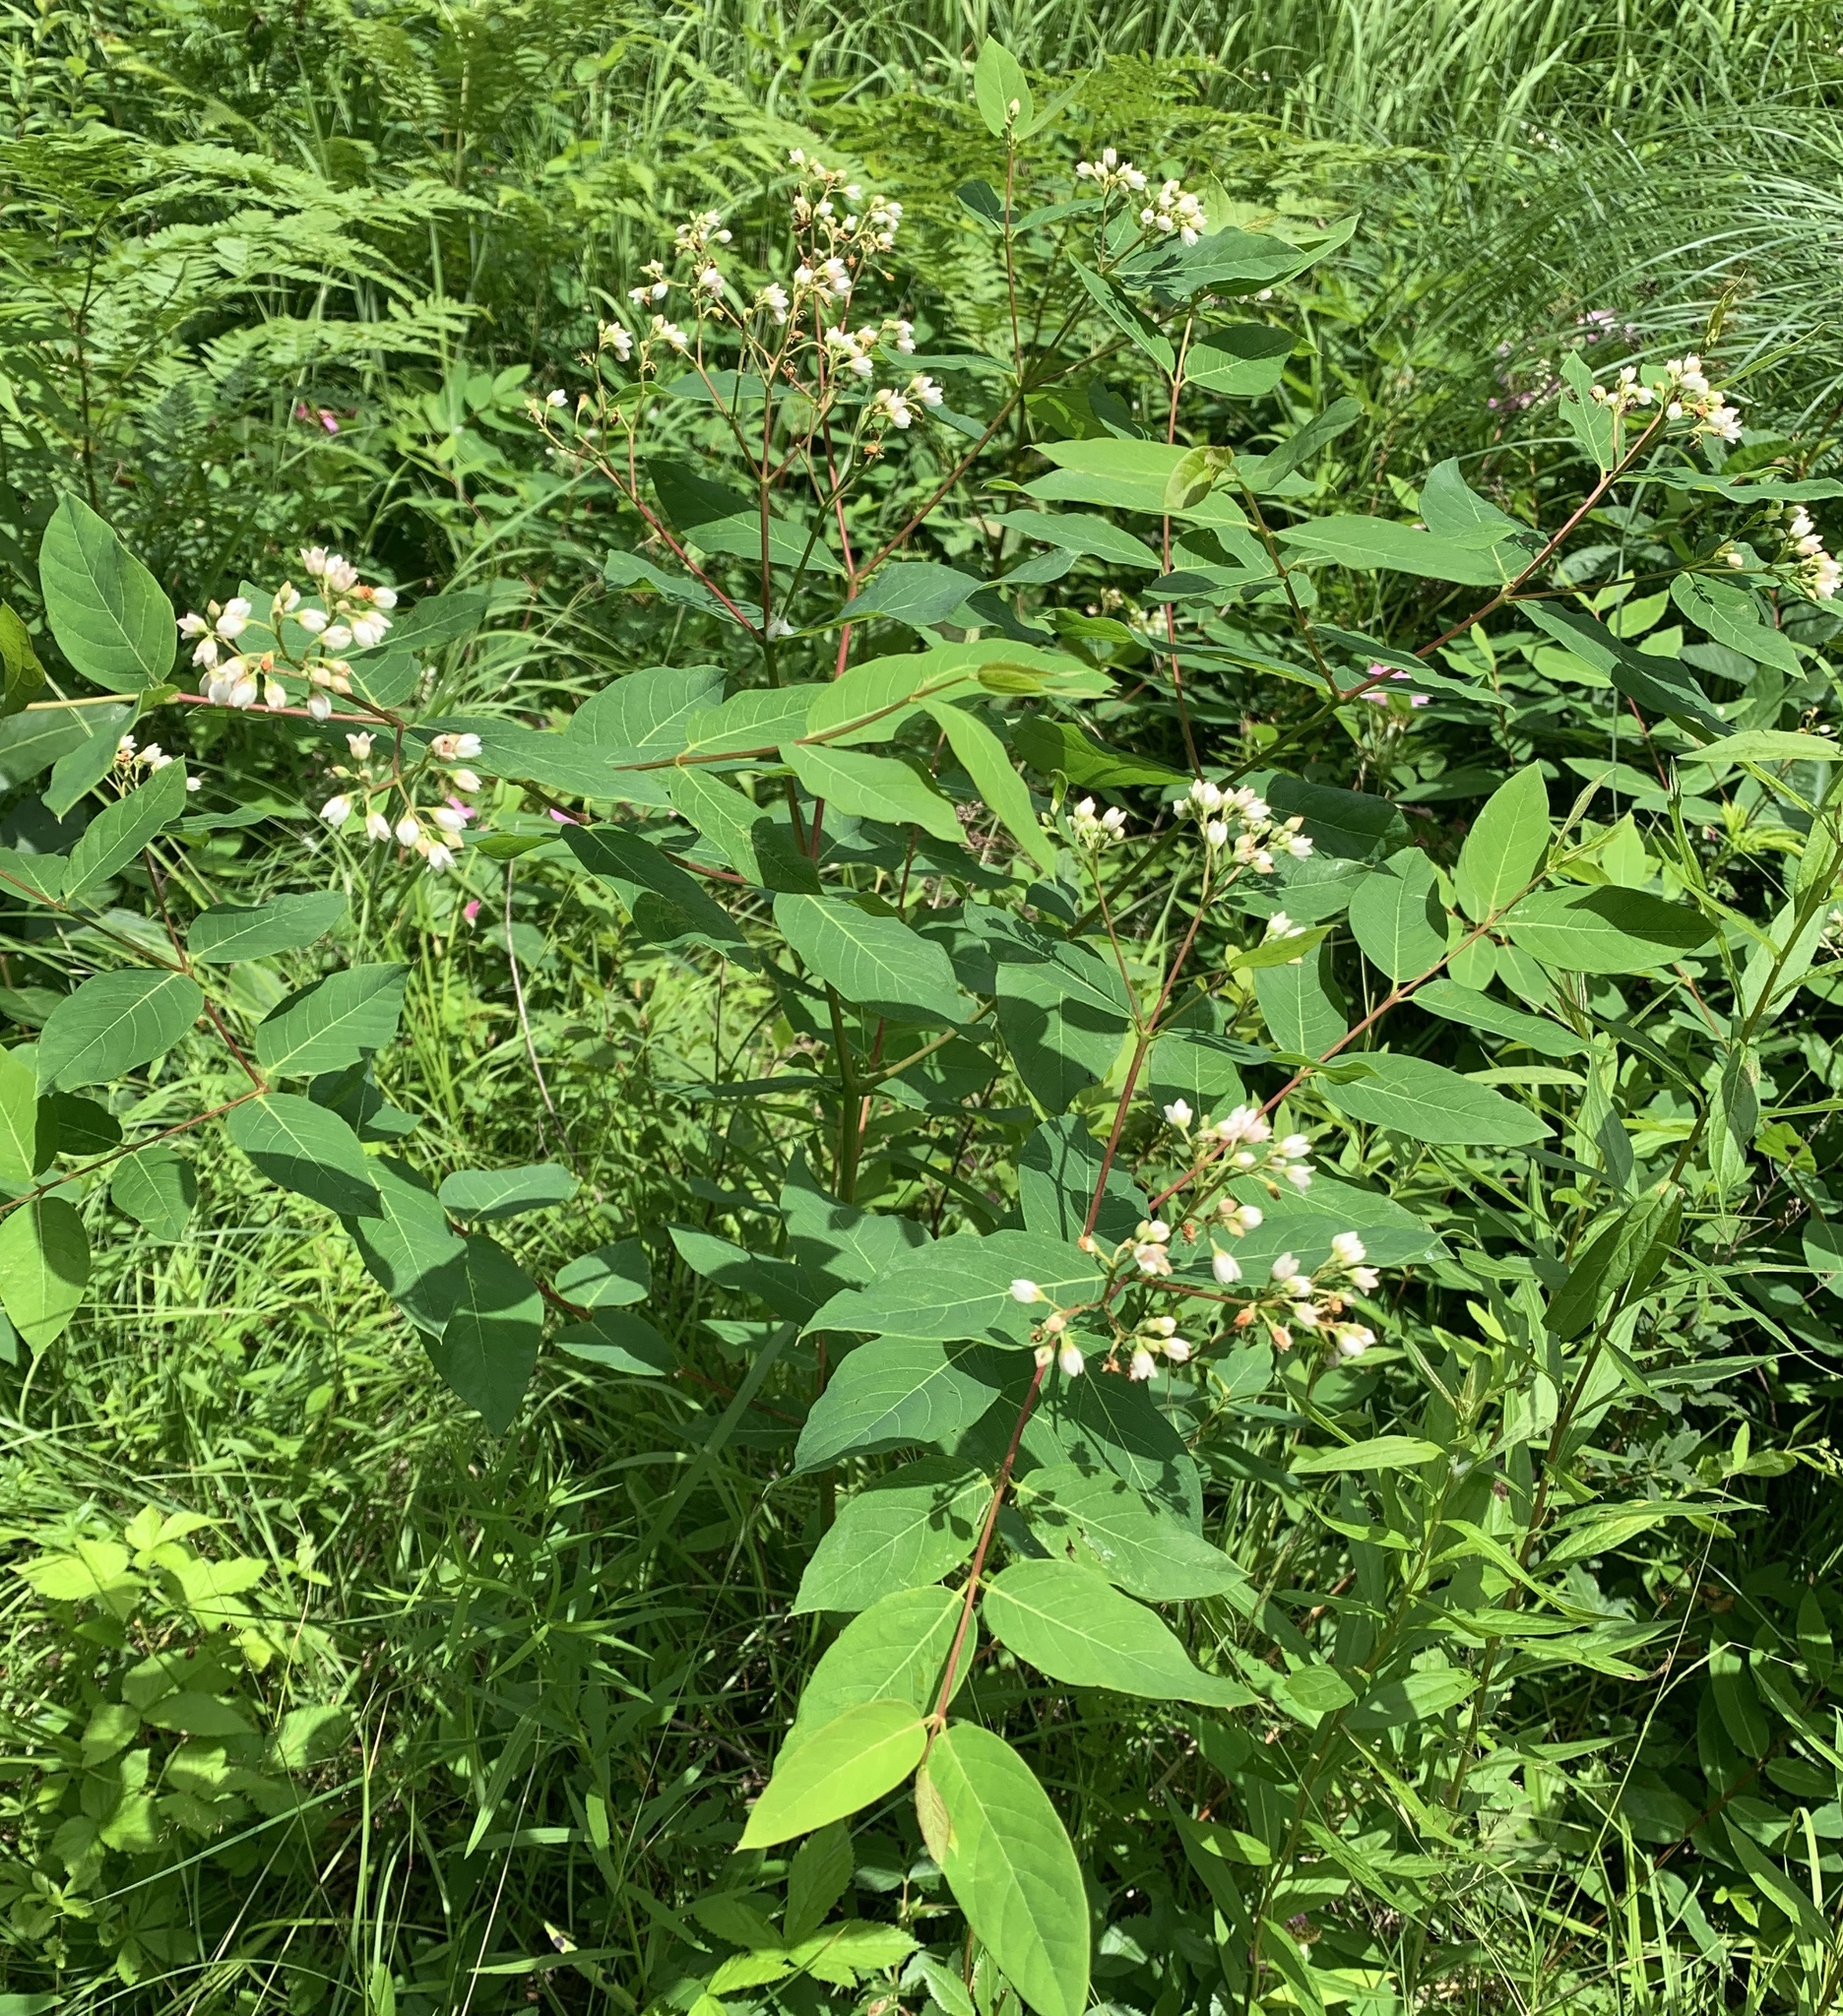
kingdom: Plantae
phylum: Tracheophyta
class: Magnoliopsida
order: Gentianales
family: Apocynaceae
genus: Apocynum
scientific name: Apocynum androsaemifolium
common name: Spreading dogbane
